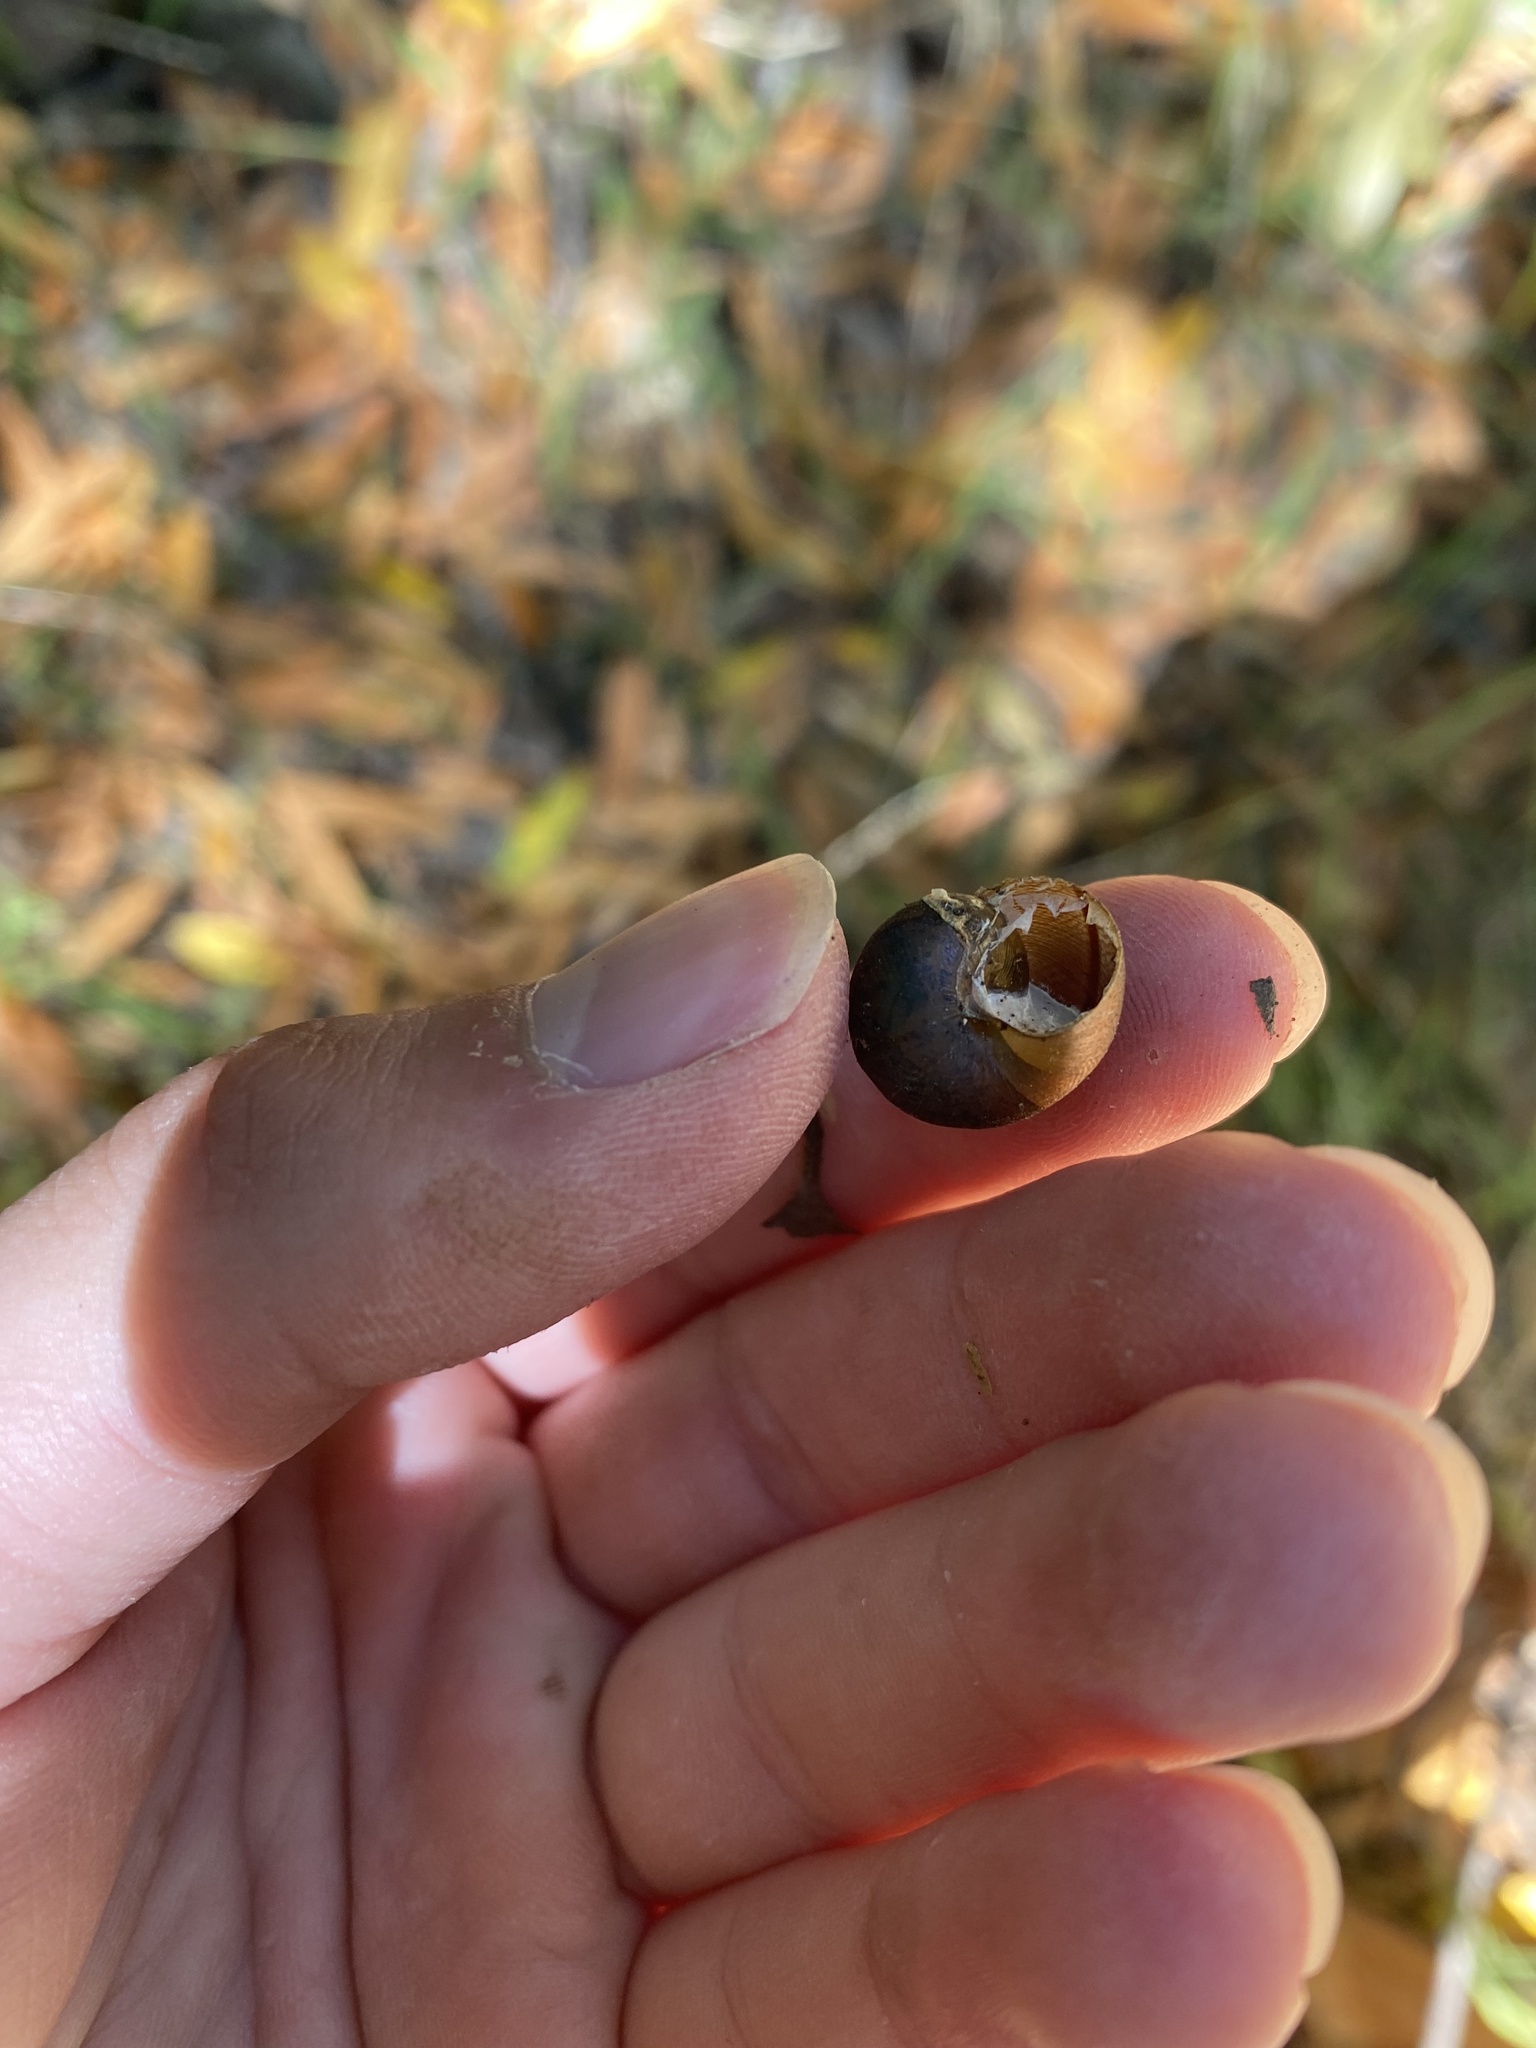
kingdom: Animalia
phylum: Mollusca
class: Gastropoda
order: Stylommatophora
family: Xanthonychidae
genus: Helminthoglypta
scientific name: Helminthoglypta nickliniana
